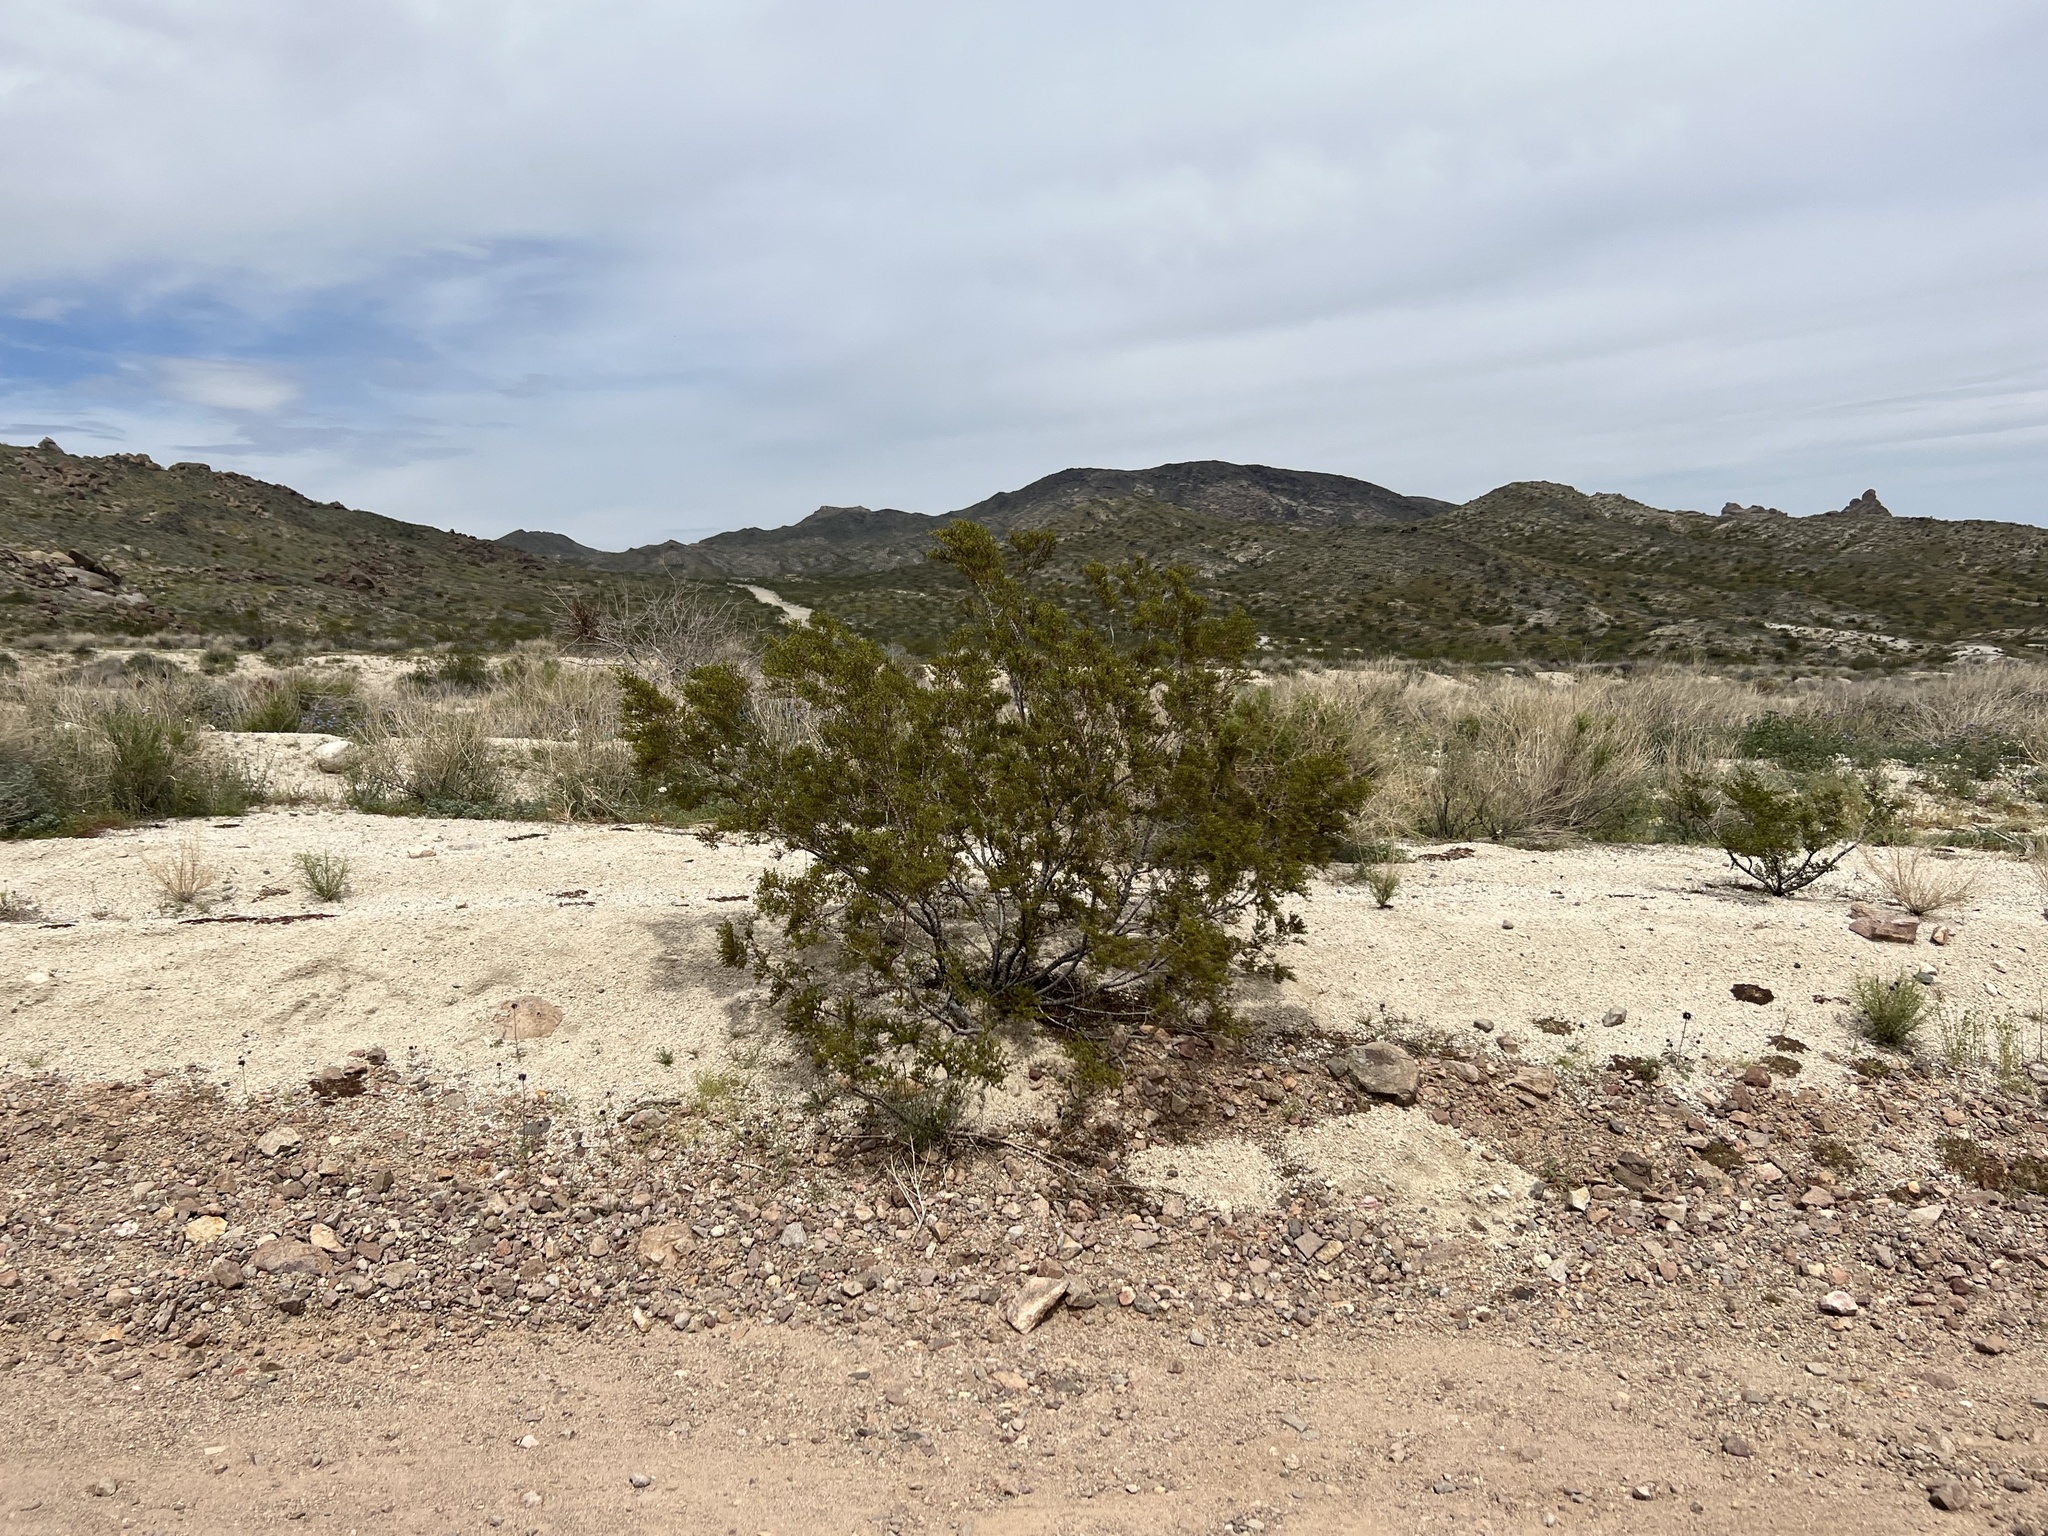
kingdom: Plantae
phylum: Tracheophyta
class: Magnoliopsida
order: Zygophyllales
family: Zygophyllaceae
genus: Larrea
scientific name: Larrea tridentata
